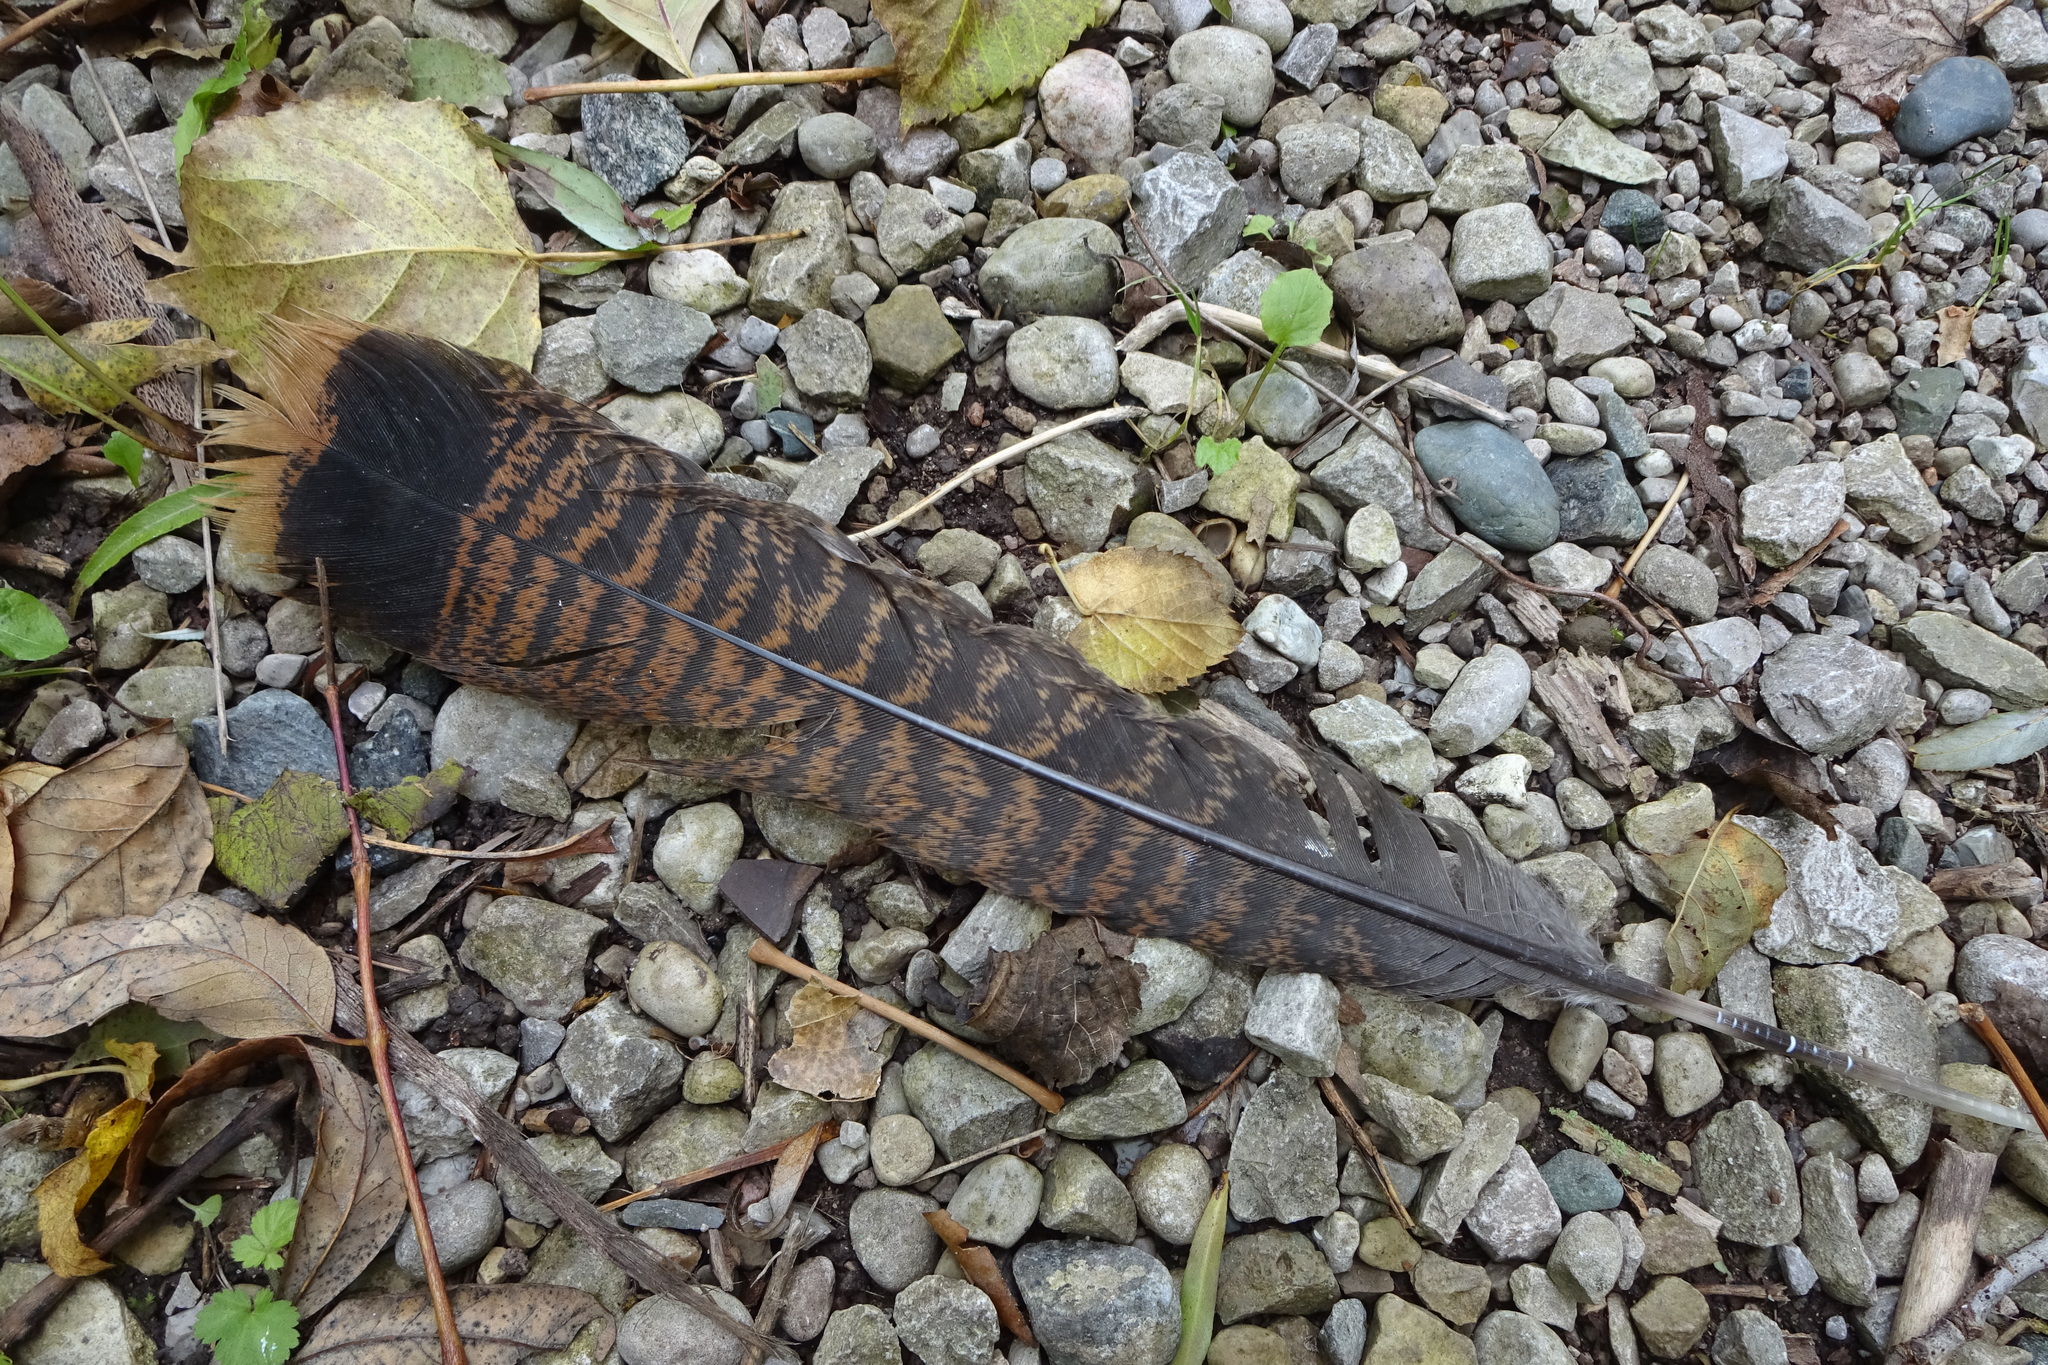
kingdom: Animalia
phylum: Chordata
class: Aves
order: Galliformes
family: Phasianidae
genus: Meleagris
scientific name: Meleagris gallopavo
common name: Wild turkey
